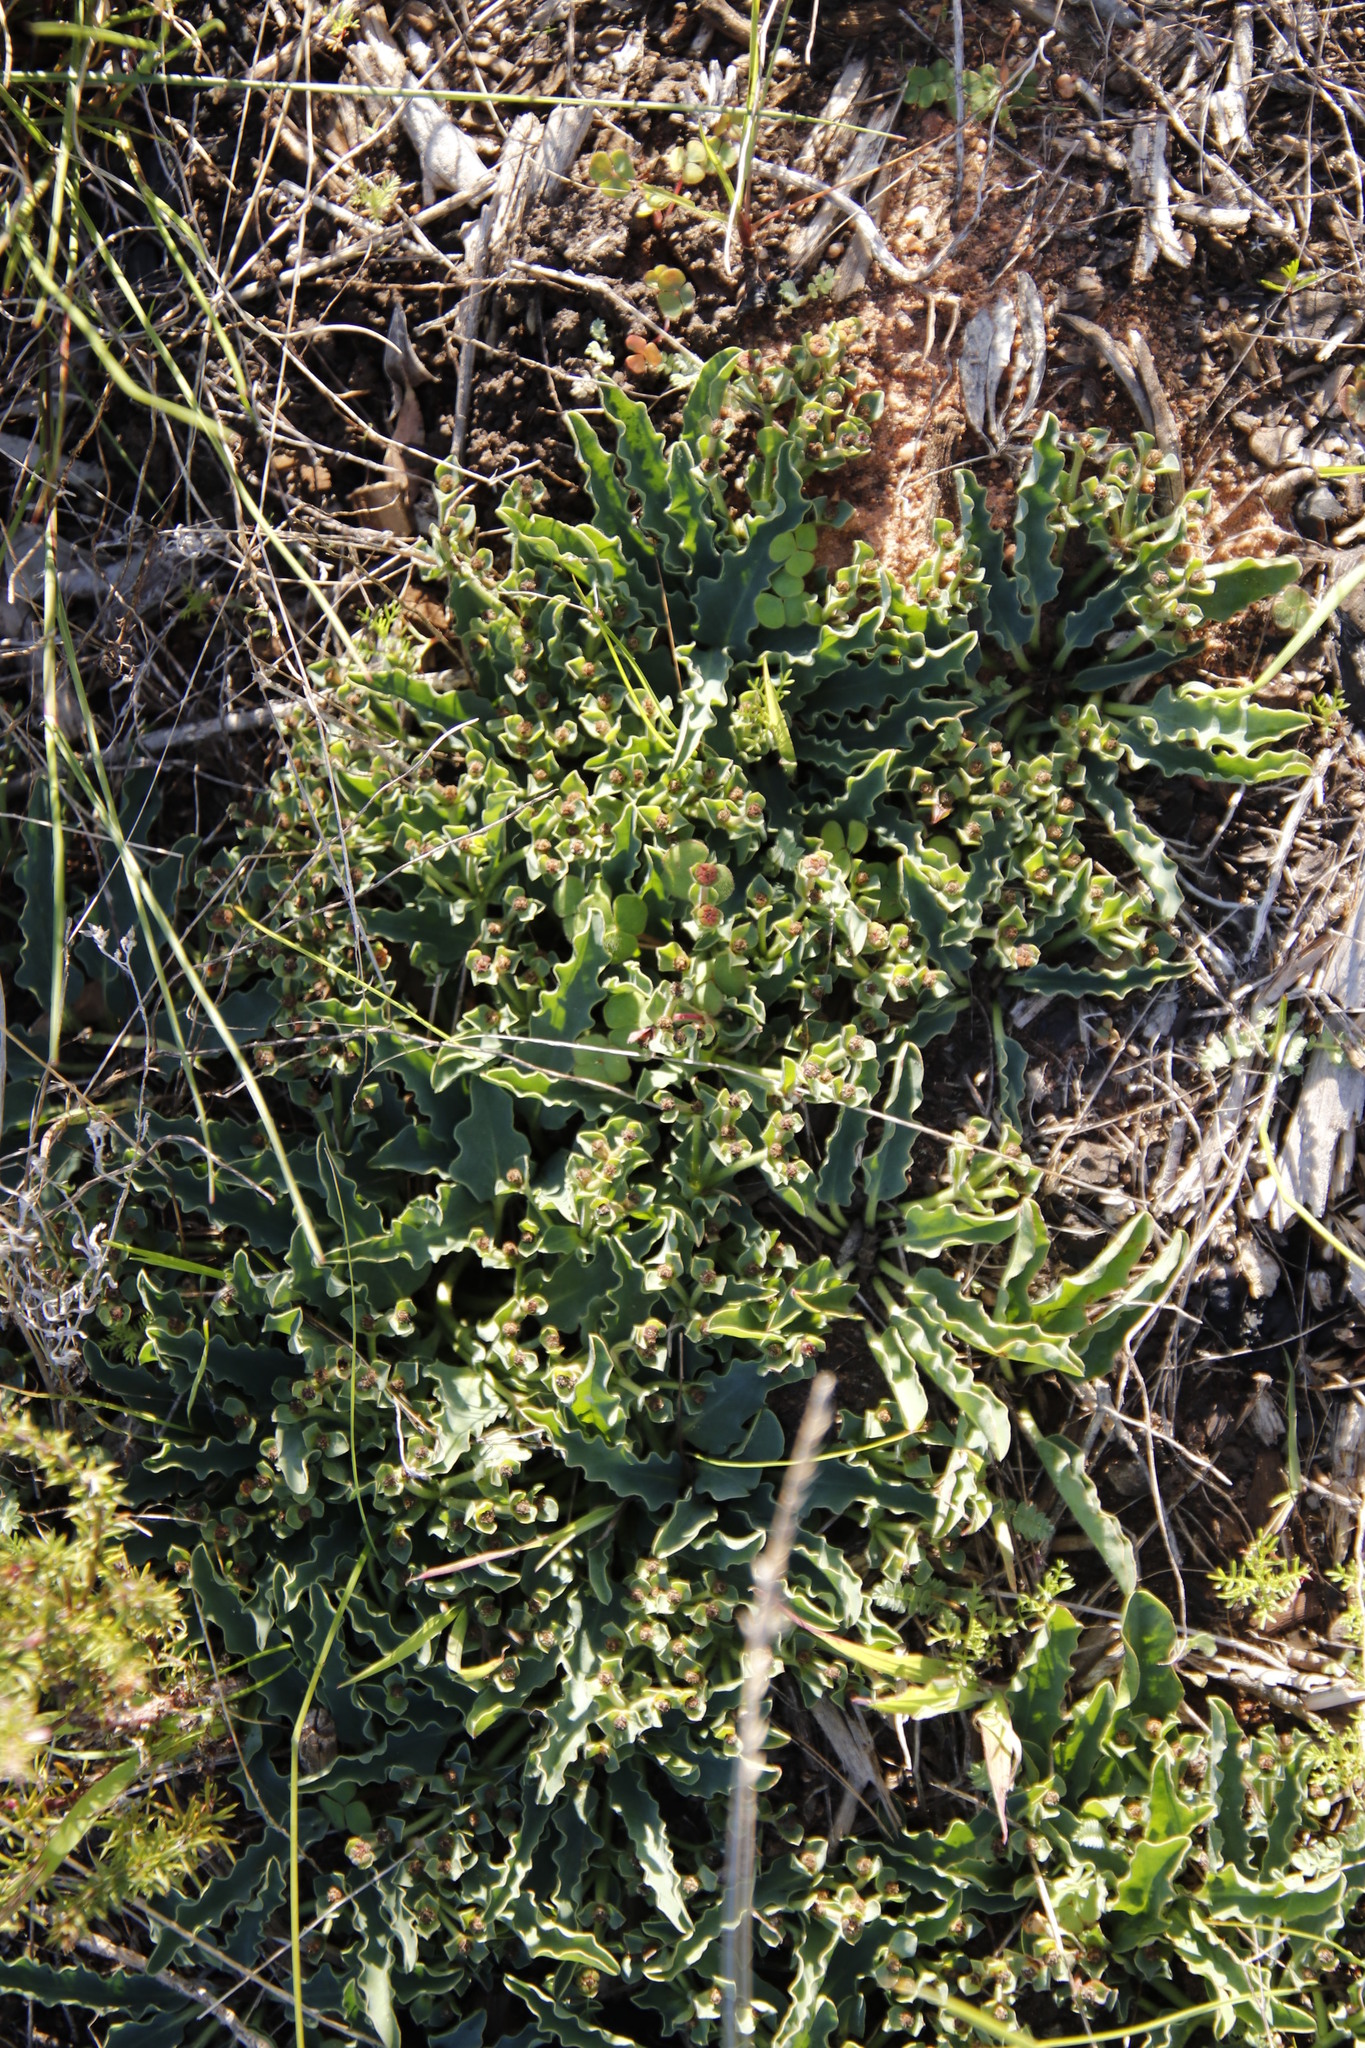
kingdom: Plantae
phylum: Tracheophyta
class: Magnoliopsida
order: Malpighiales
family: Euphorbiaceae
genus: Euphorbia
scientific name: Euphorbia tuberosa
